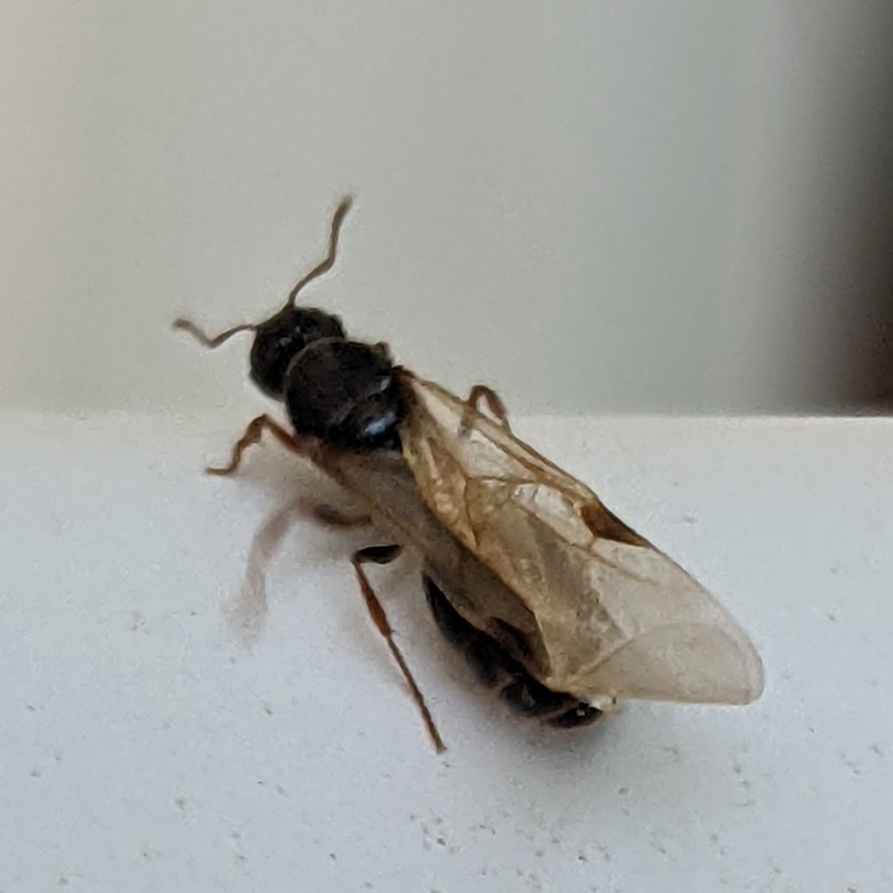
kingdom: Animalia
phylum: Arthropoda
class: Insecta
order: Hymenoptera
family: Formicidae
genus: Tetramorium
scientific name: Tetramorium immigrans
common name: Pavement ant
